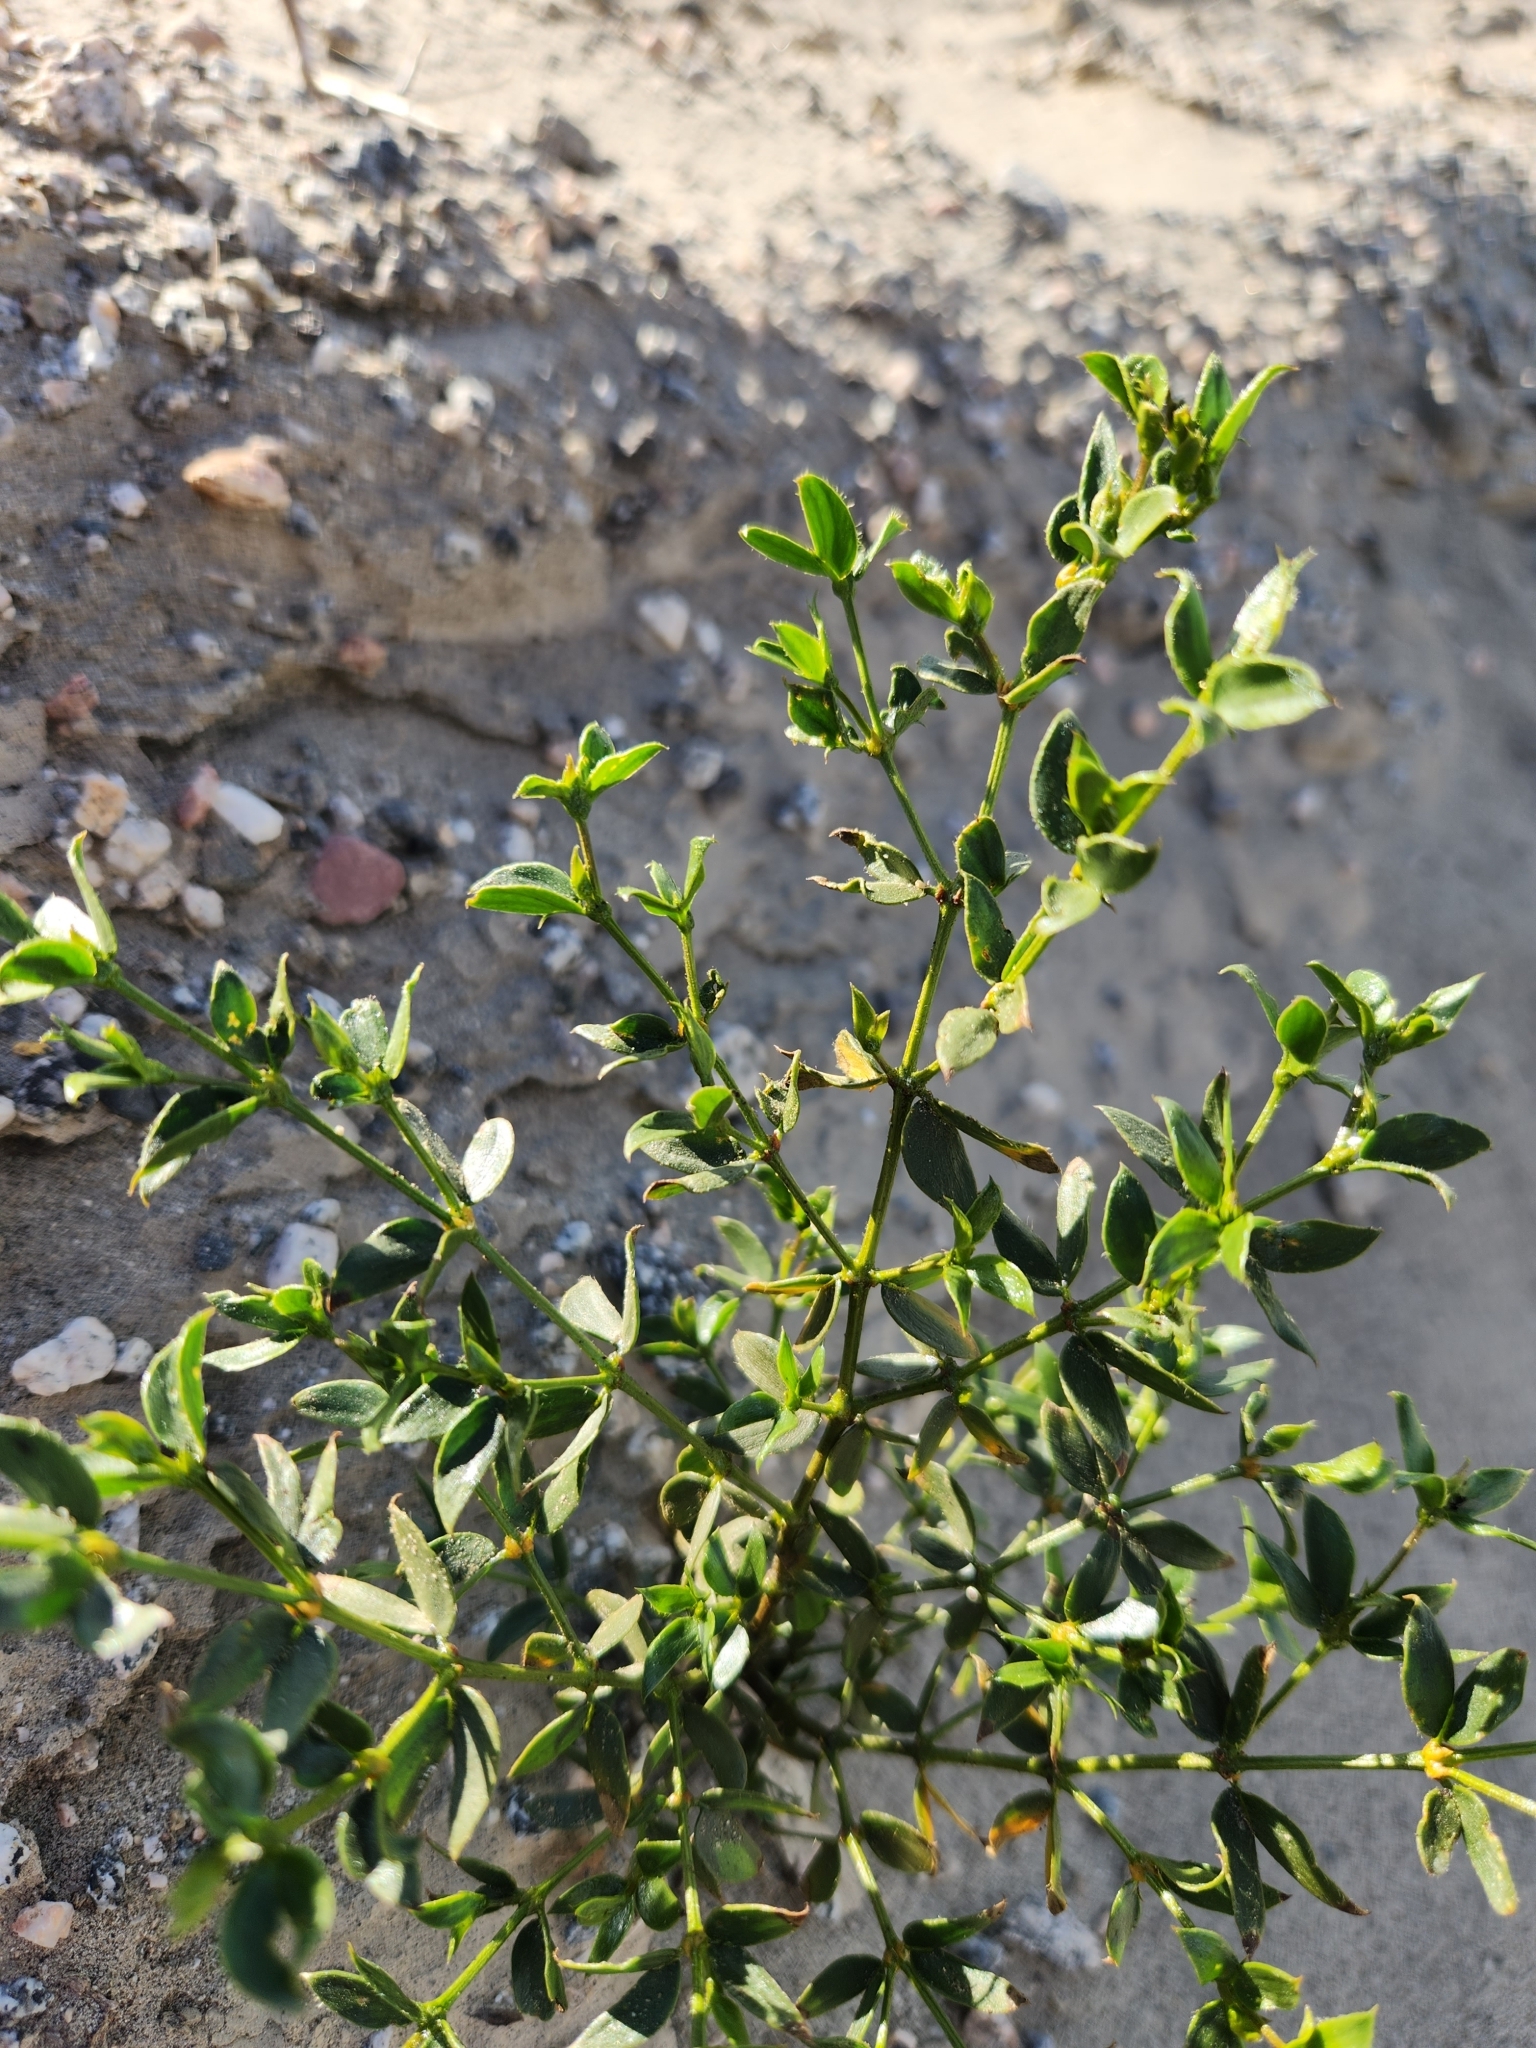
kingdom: Plantae
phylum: Tracheophyta
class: Magnoliopsida
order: Zygophyllales
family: Zygophyllaceae
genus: Larrea
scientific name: Larrea tridentata
